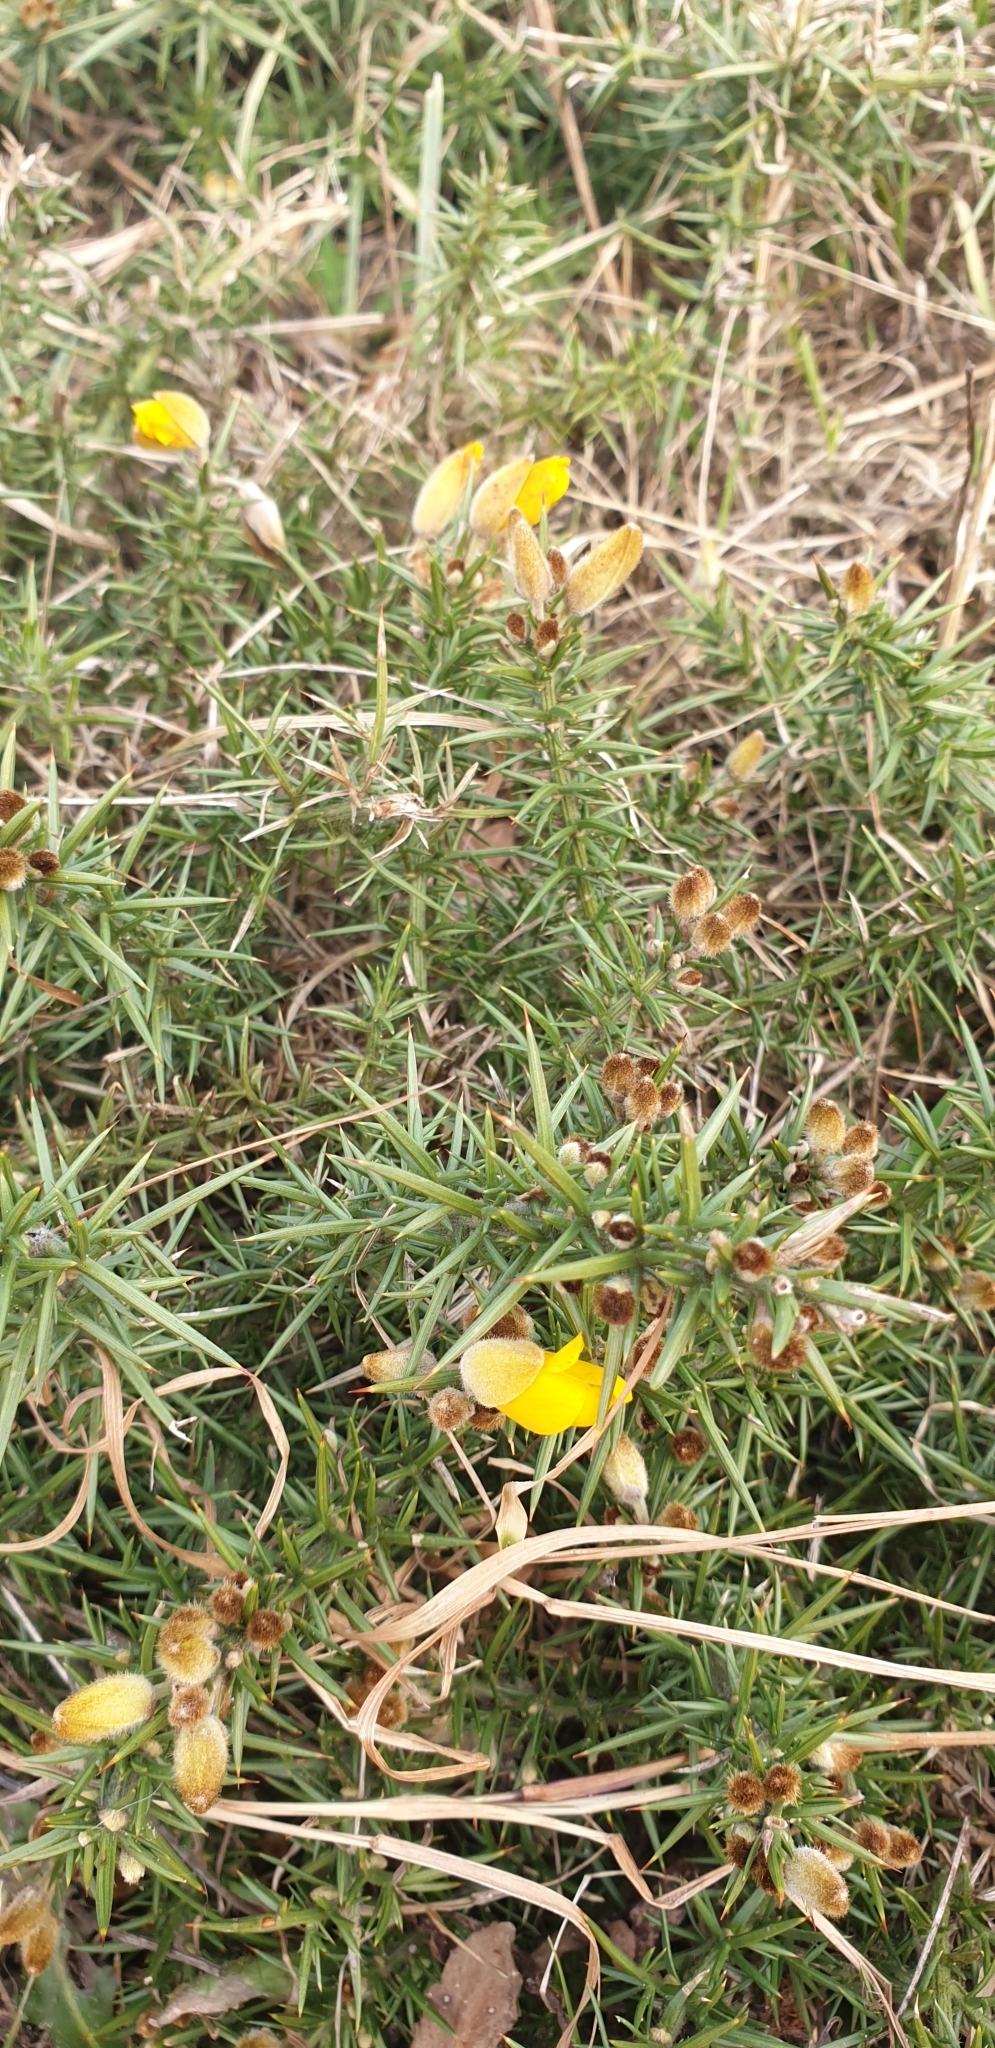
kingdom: Plantae
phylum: Tracheophyta
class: Magnoliopsida
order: Fabales
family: Fabaceae
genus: Ulex
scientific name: Ulex europaeus
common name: Common gorse
